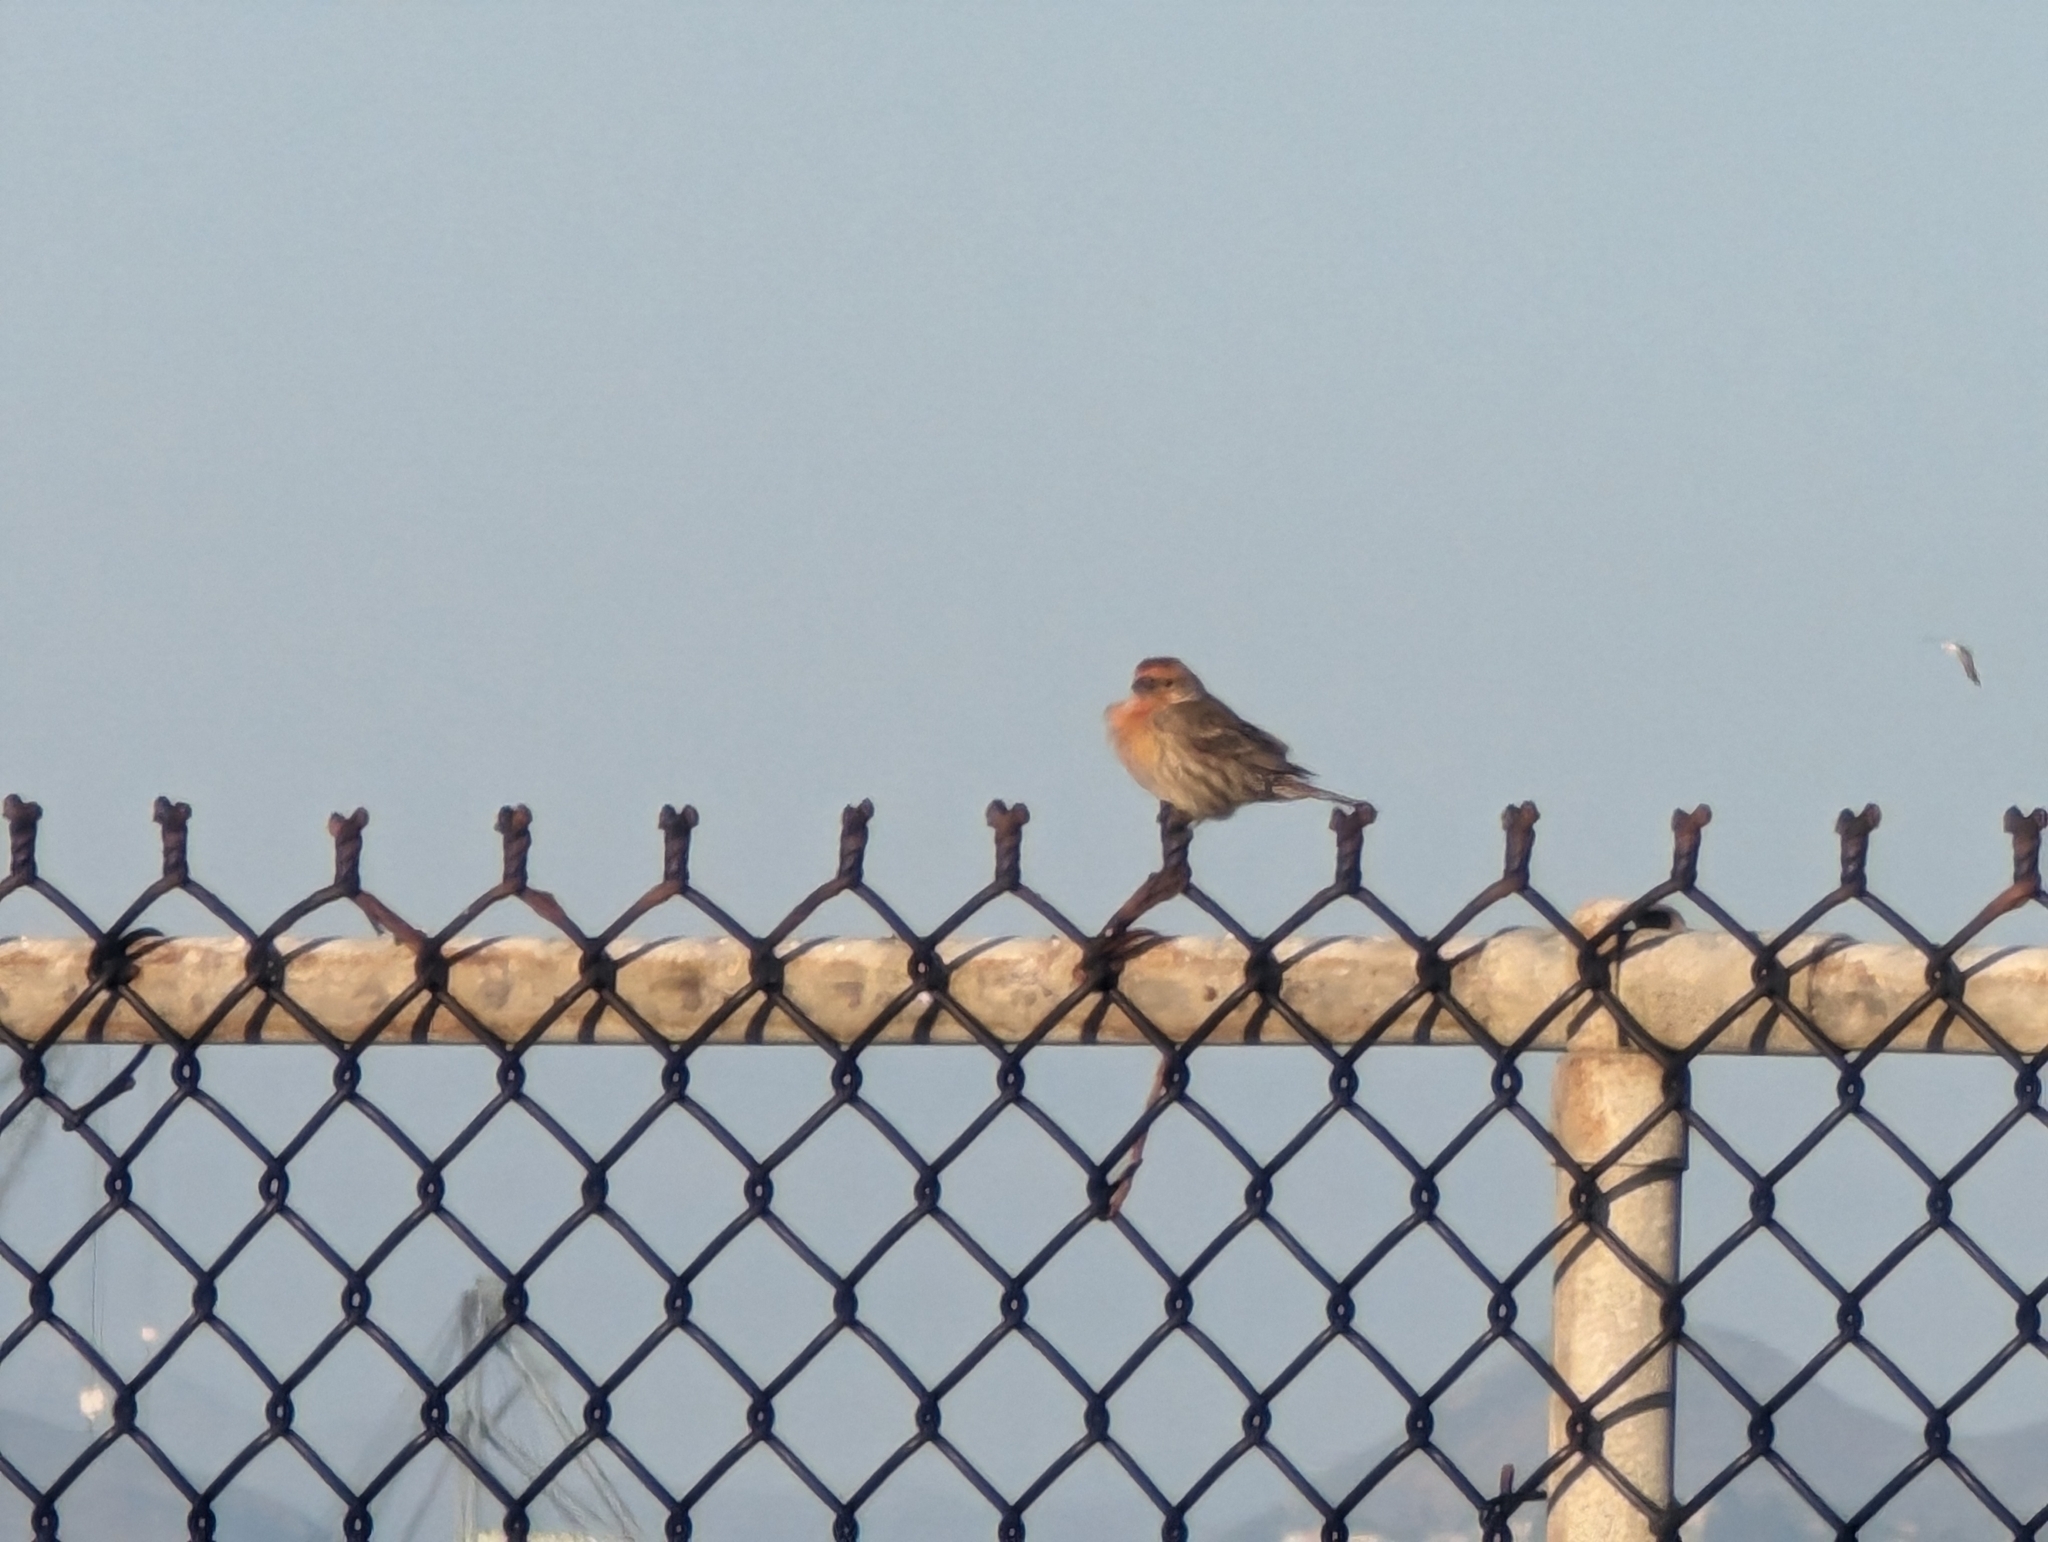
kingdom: Animalia
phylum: Chordata
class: Aves
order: Passeriformes
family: Fringillidae
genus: Haemorhous
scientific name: Haemorhous mexicanus
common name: House finch
